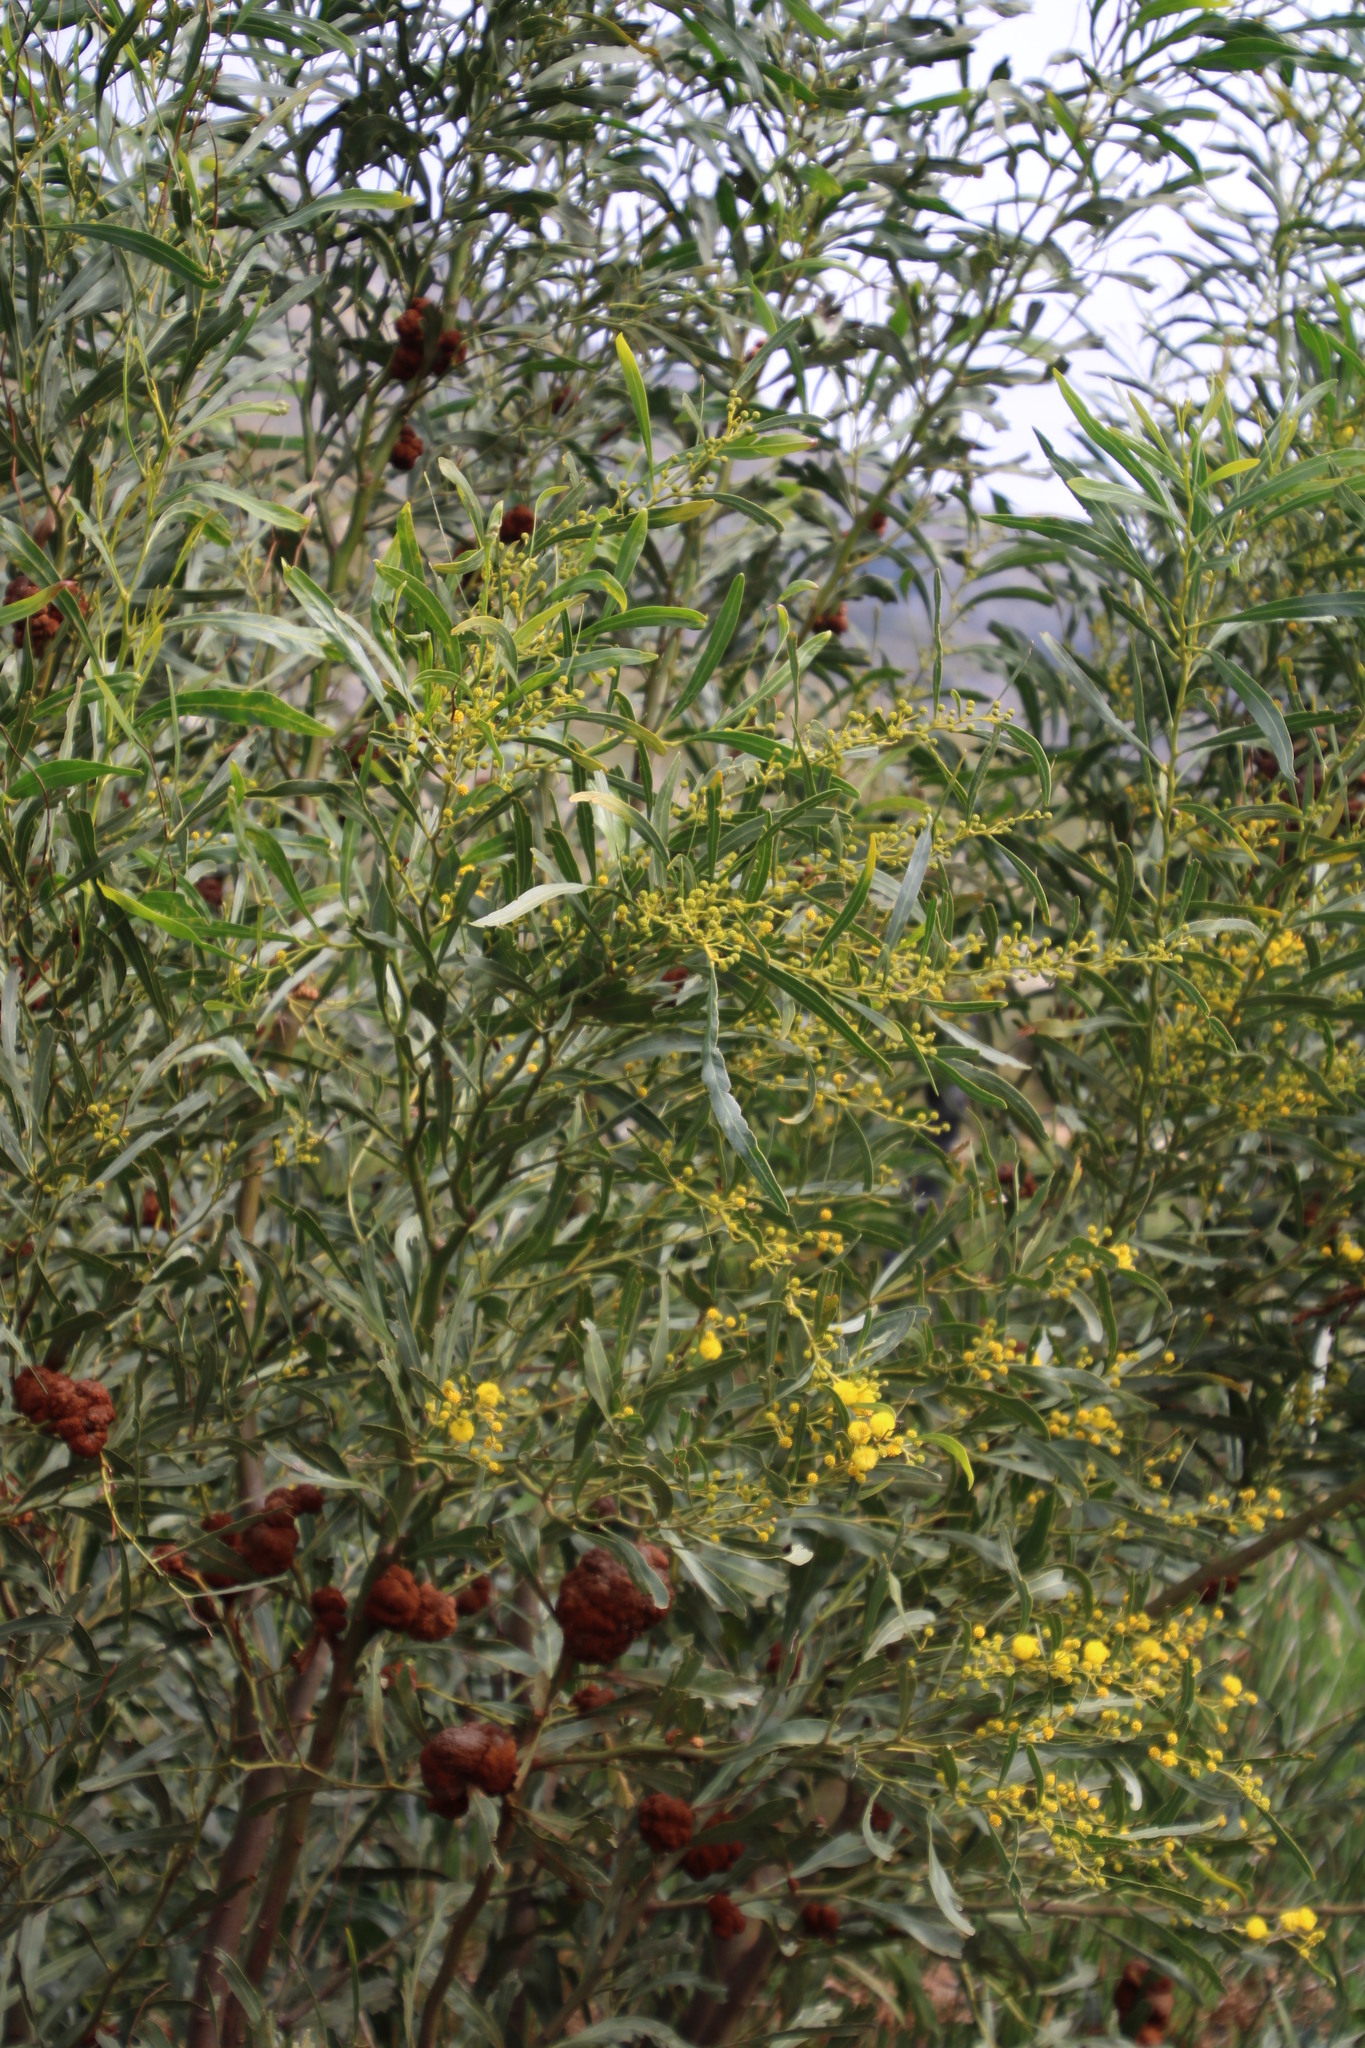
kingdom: Plantae
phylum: Tracheophyta
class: Magnoliopsida
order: Fabales
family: Fabaceae
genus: Acacia
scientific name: Acacia saligna
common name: Orange wattle
